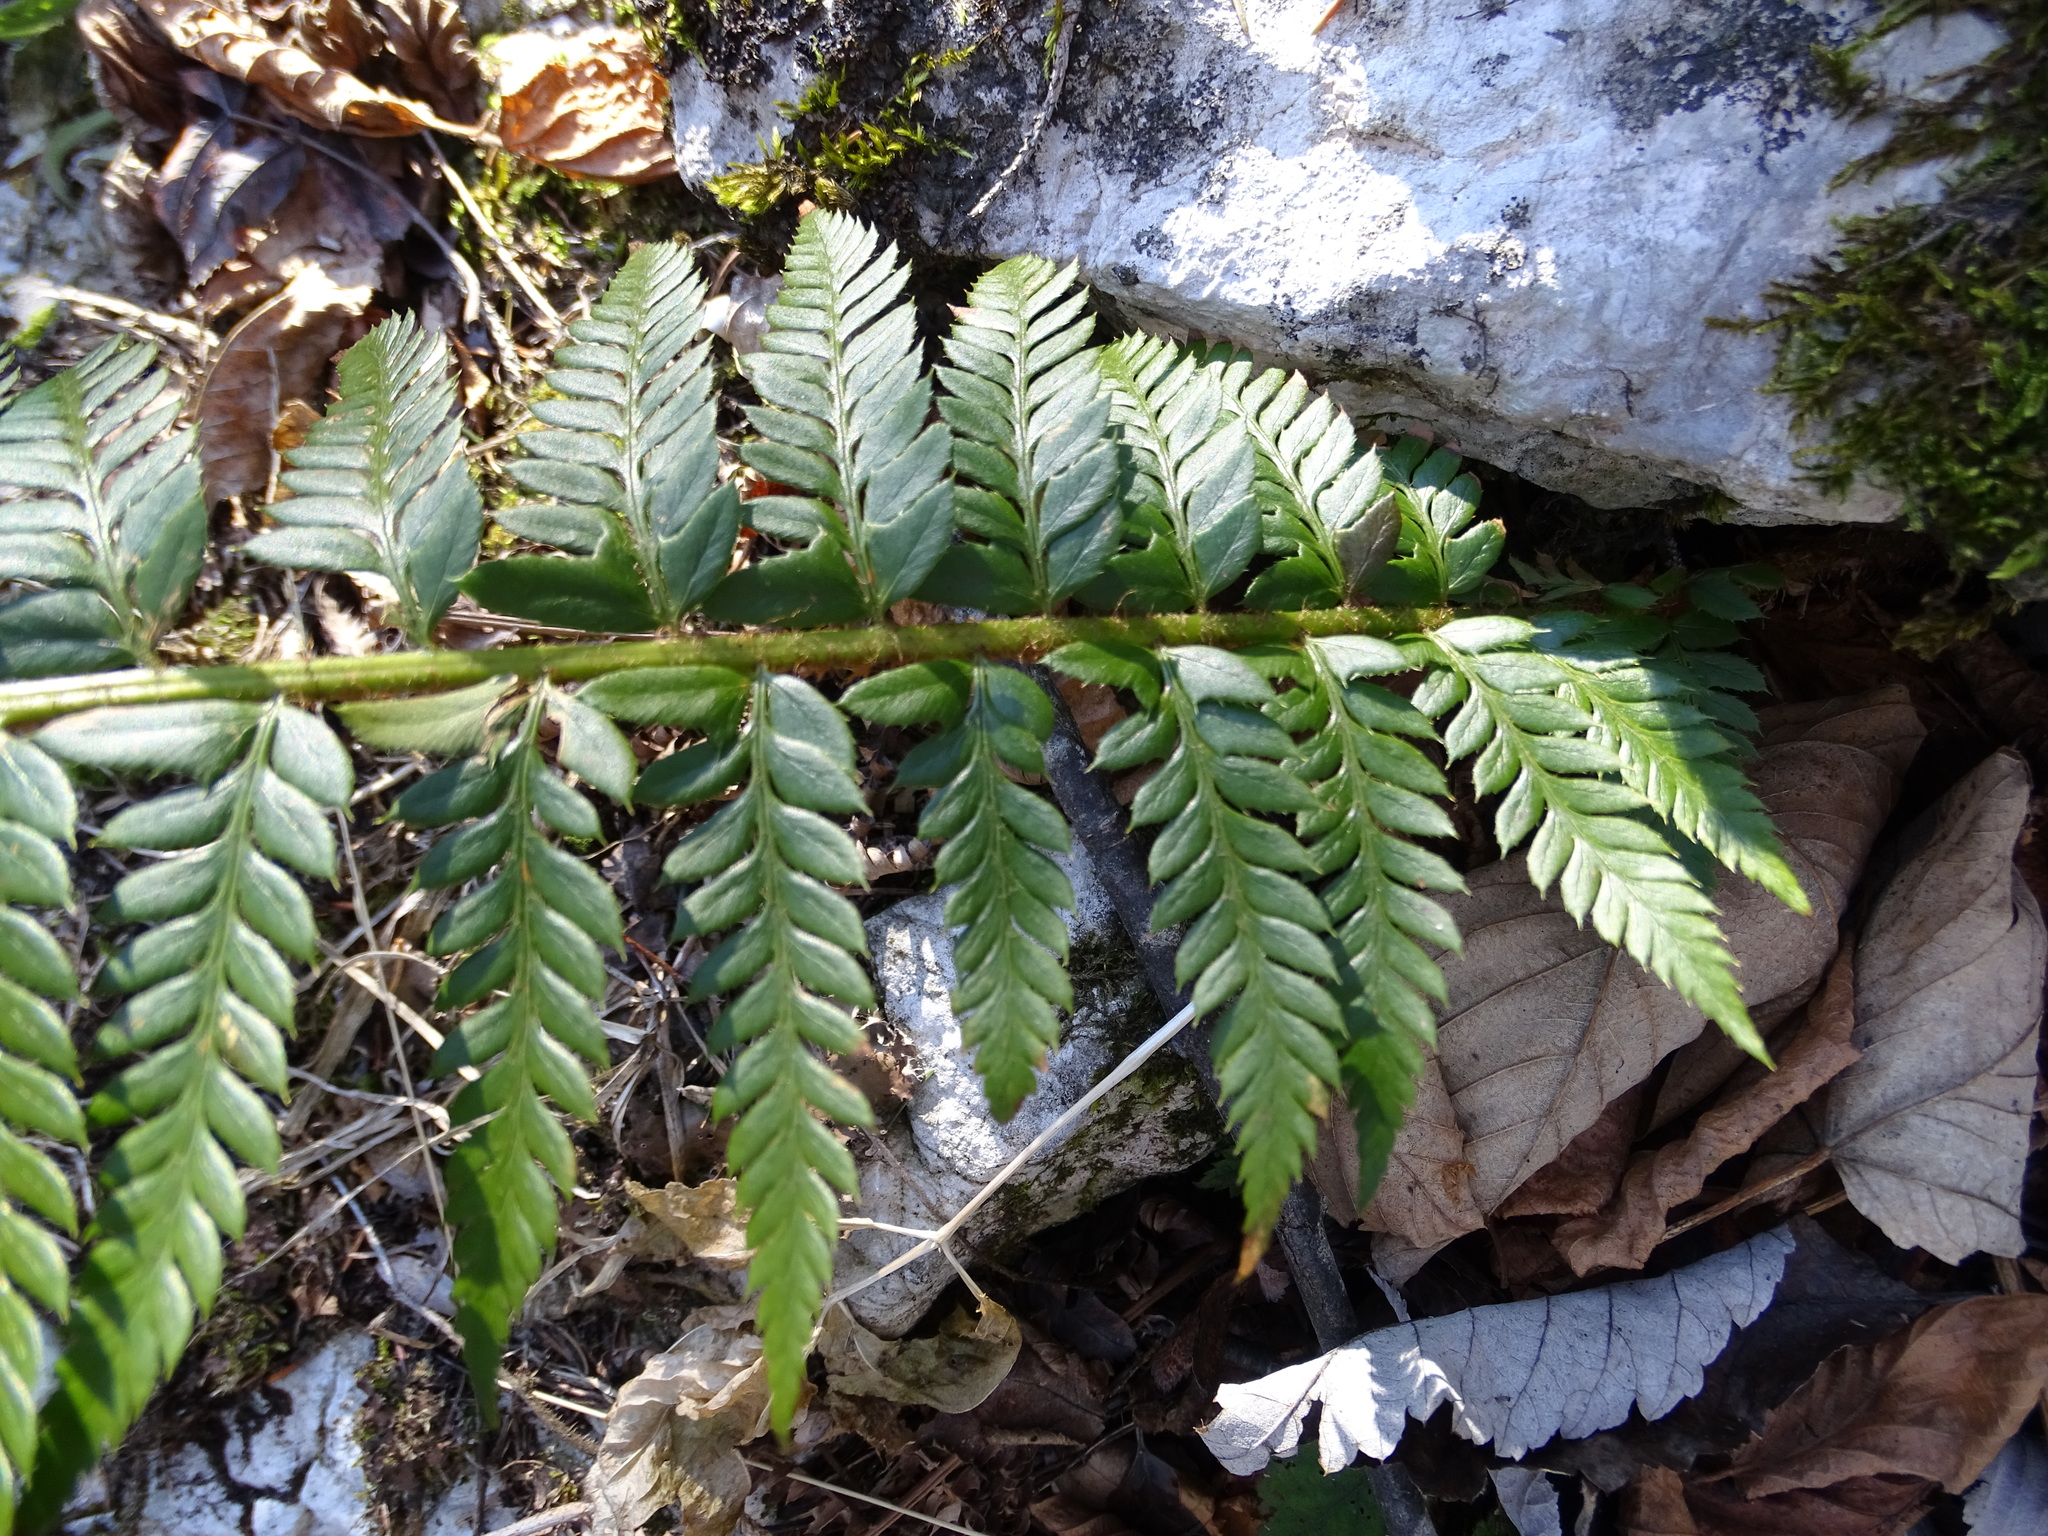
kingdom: Plantae
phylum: Tracheophyta
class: Polypodiopsida
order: Polypodiales
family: Dryopteridaceae
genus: Polystichum
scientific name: Polystichum aculeatum
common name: Hard shield-fern
